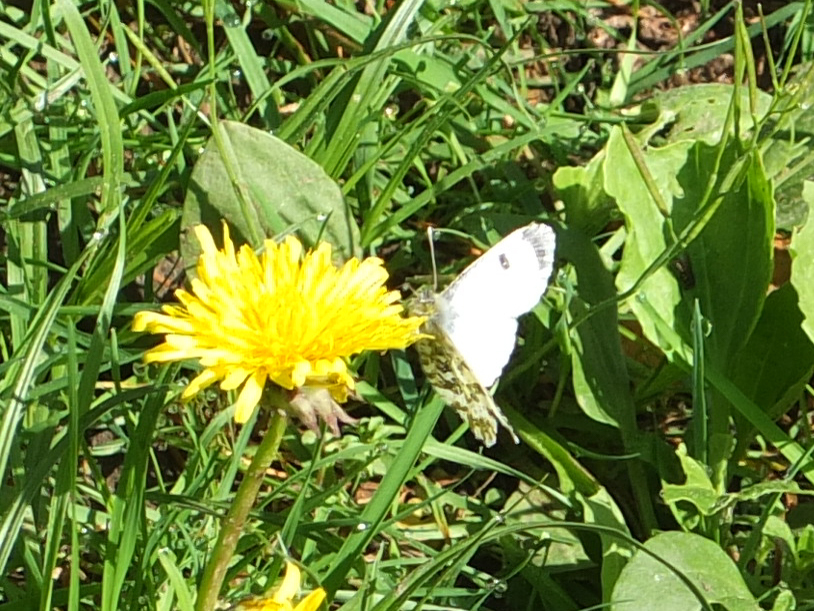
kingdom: Animalia
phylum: Arthropoda
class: Insecta
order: Lepidoptera
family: Pieridae
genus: Anthocharis
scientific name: Anthocharis cardamines
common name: Orange-tip
